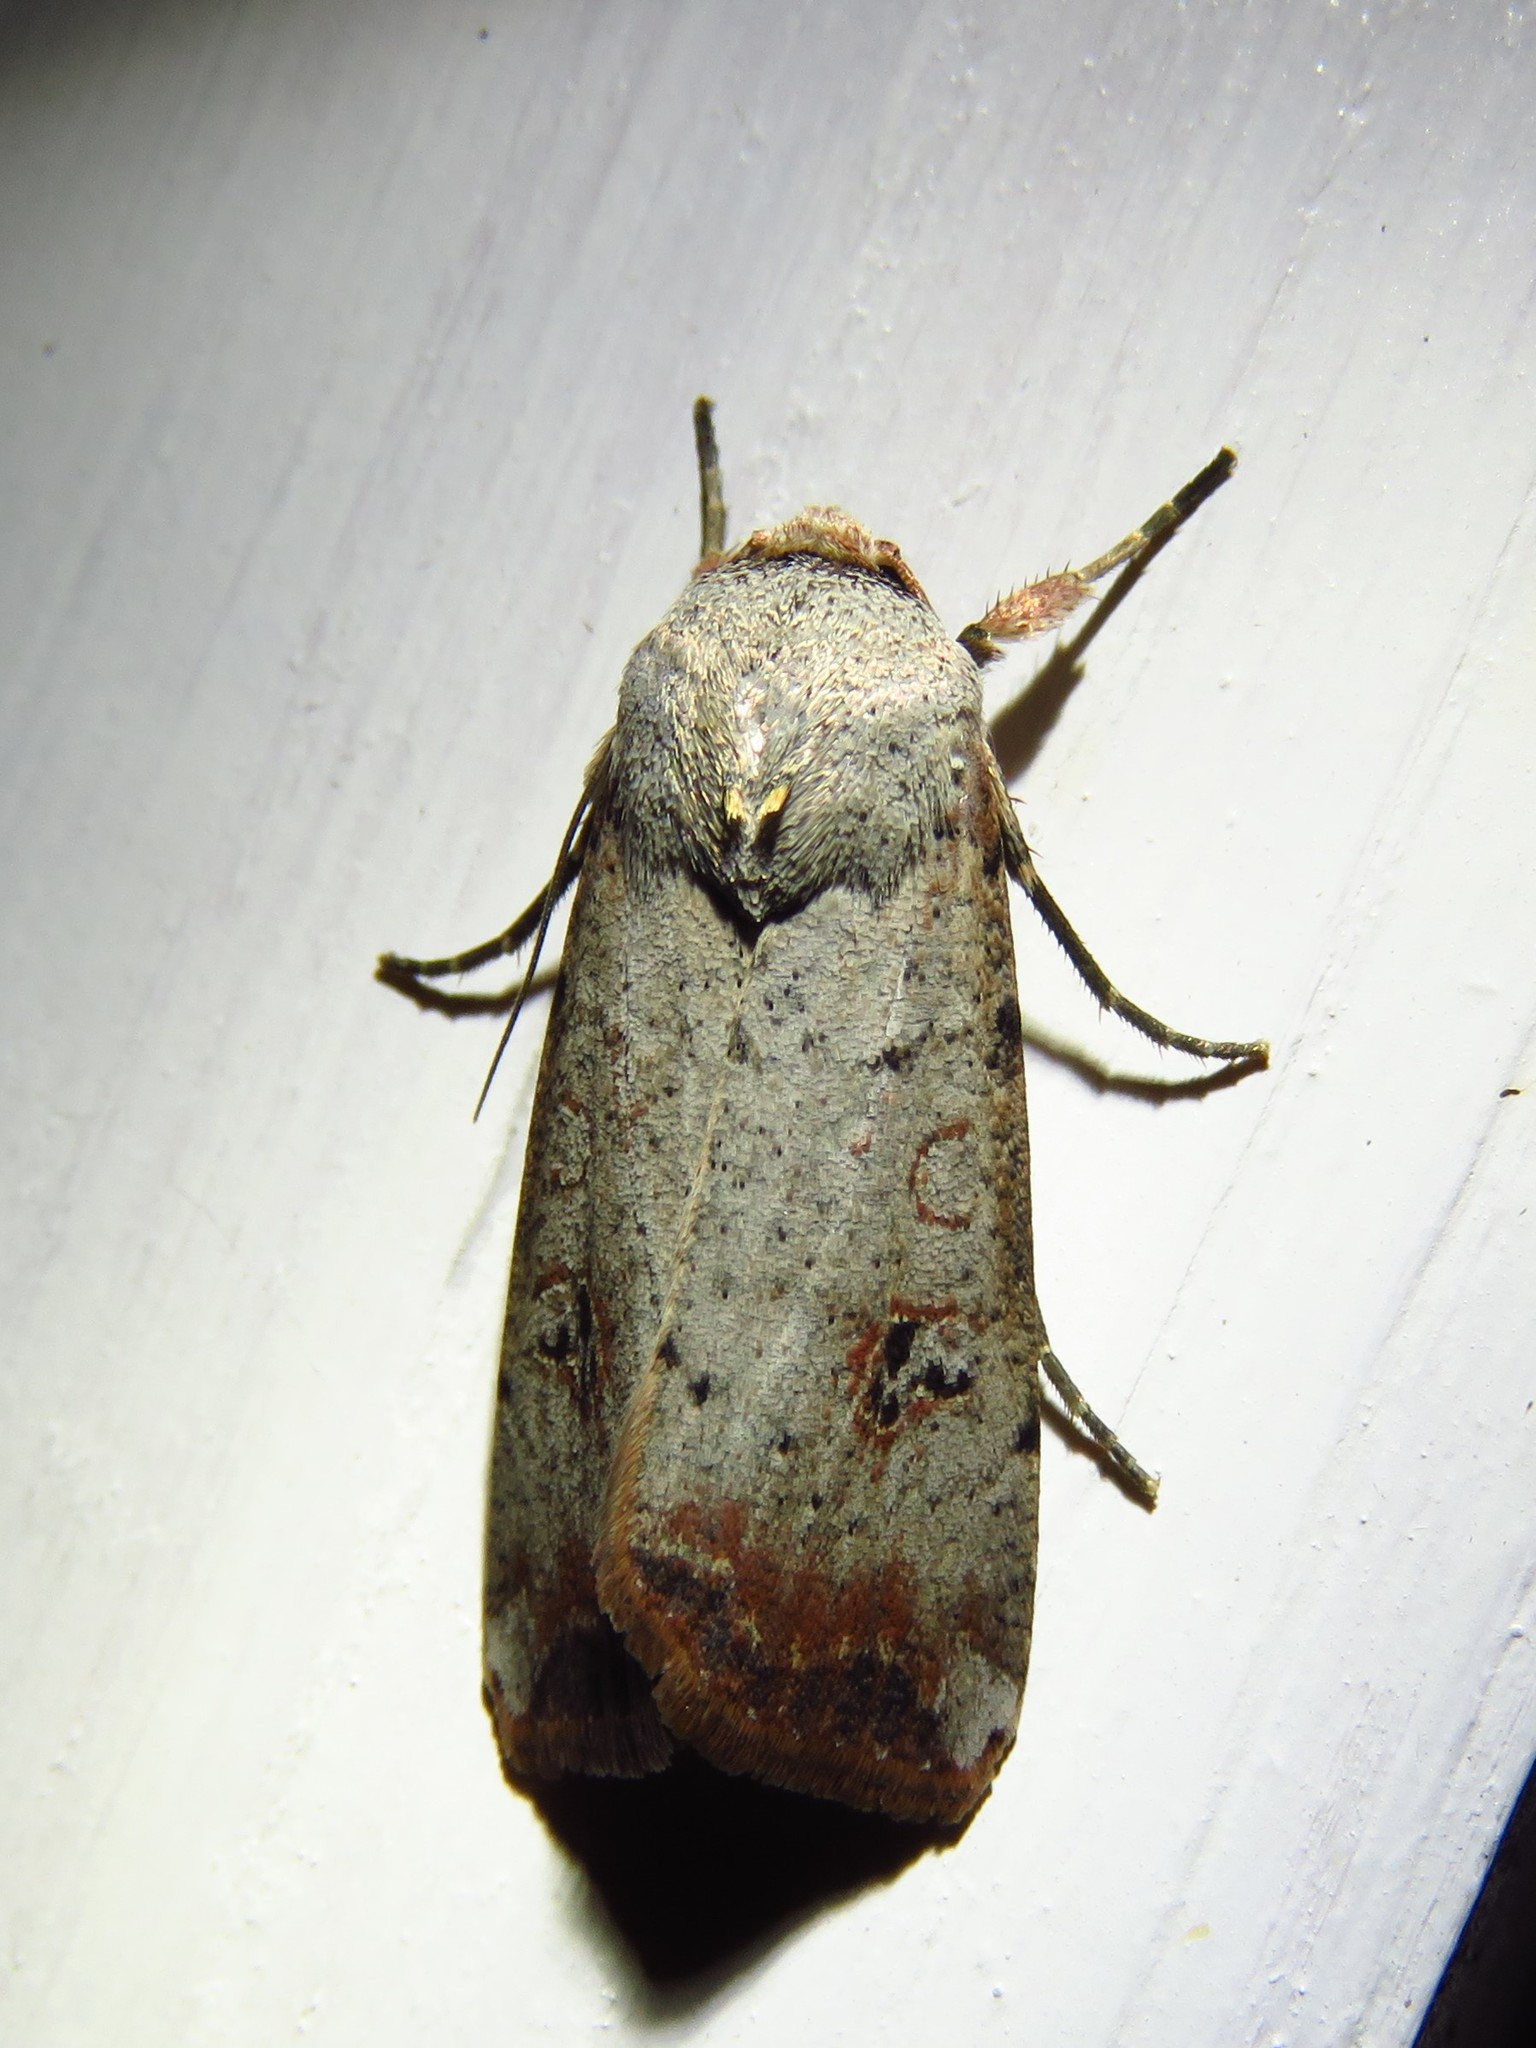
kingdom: Animalia
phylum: Arthropoda
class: Insecta
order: Lepidoptera
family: Noctuidae
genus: Anicla
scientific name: Anicla infecta
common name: Green cutworm
